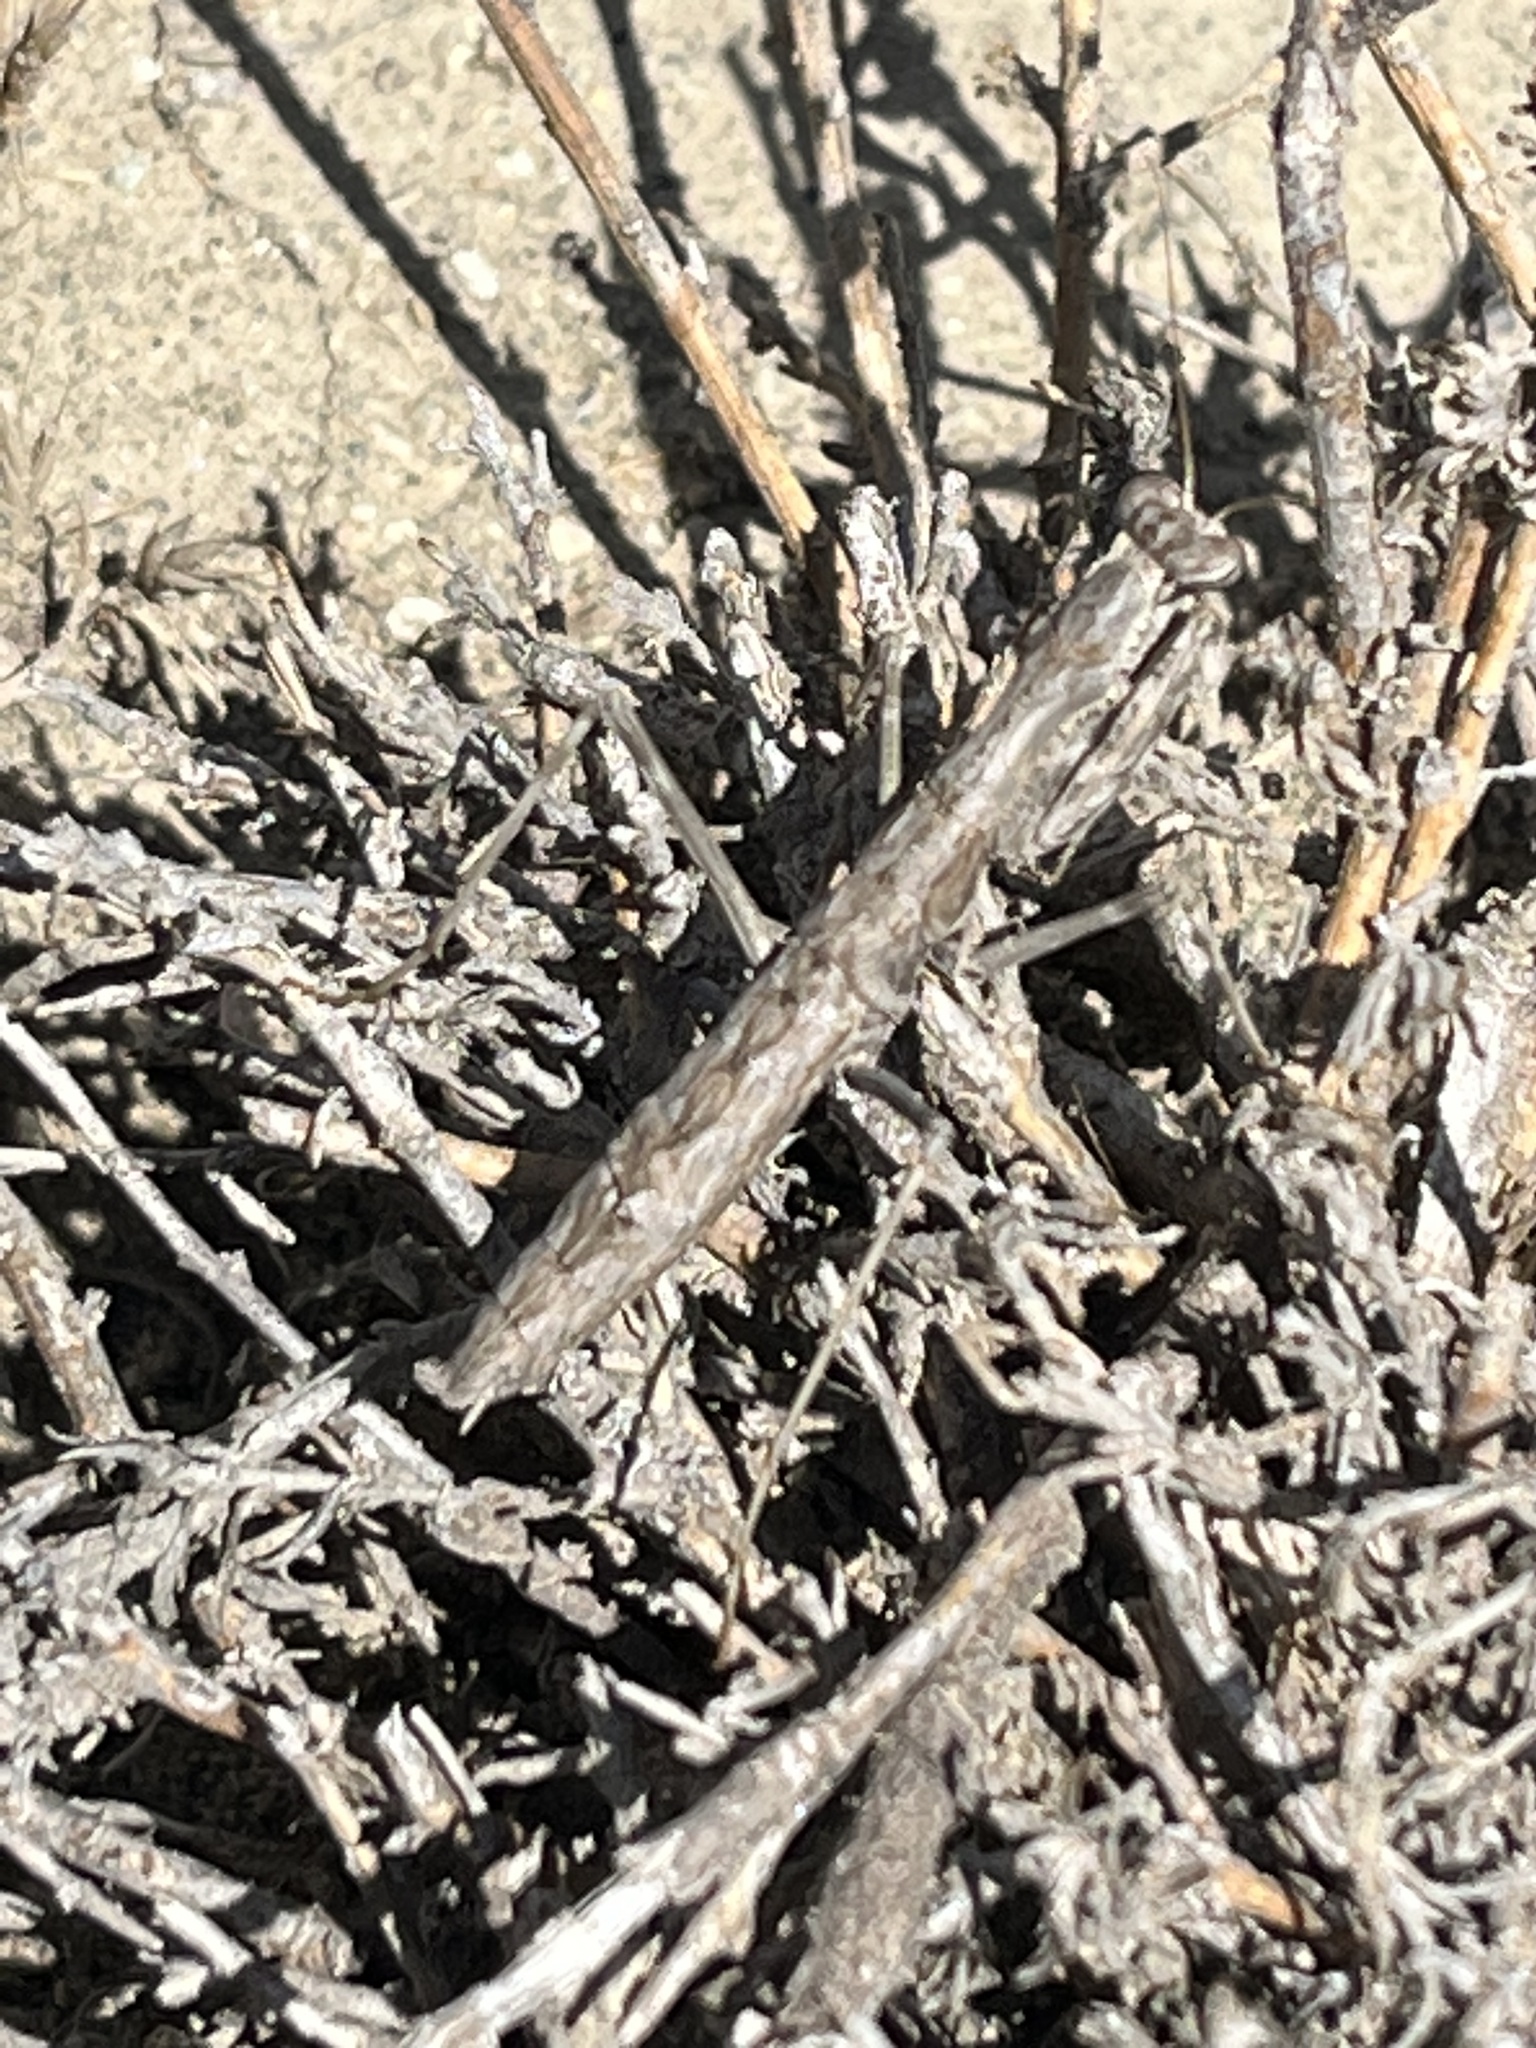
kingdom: Animalia
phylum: Arthropoda
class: Insecta
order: Mantodea
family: Rivetinidae
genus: Bolivaria
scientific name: Bolivaria brachyptera
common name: Bolivar's short winged mantis
